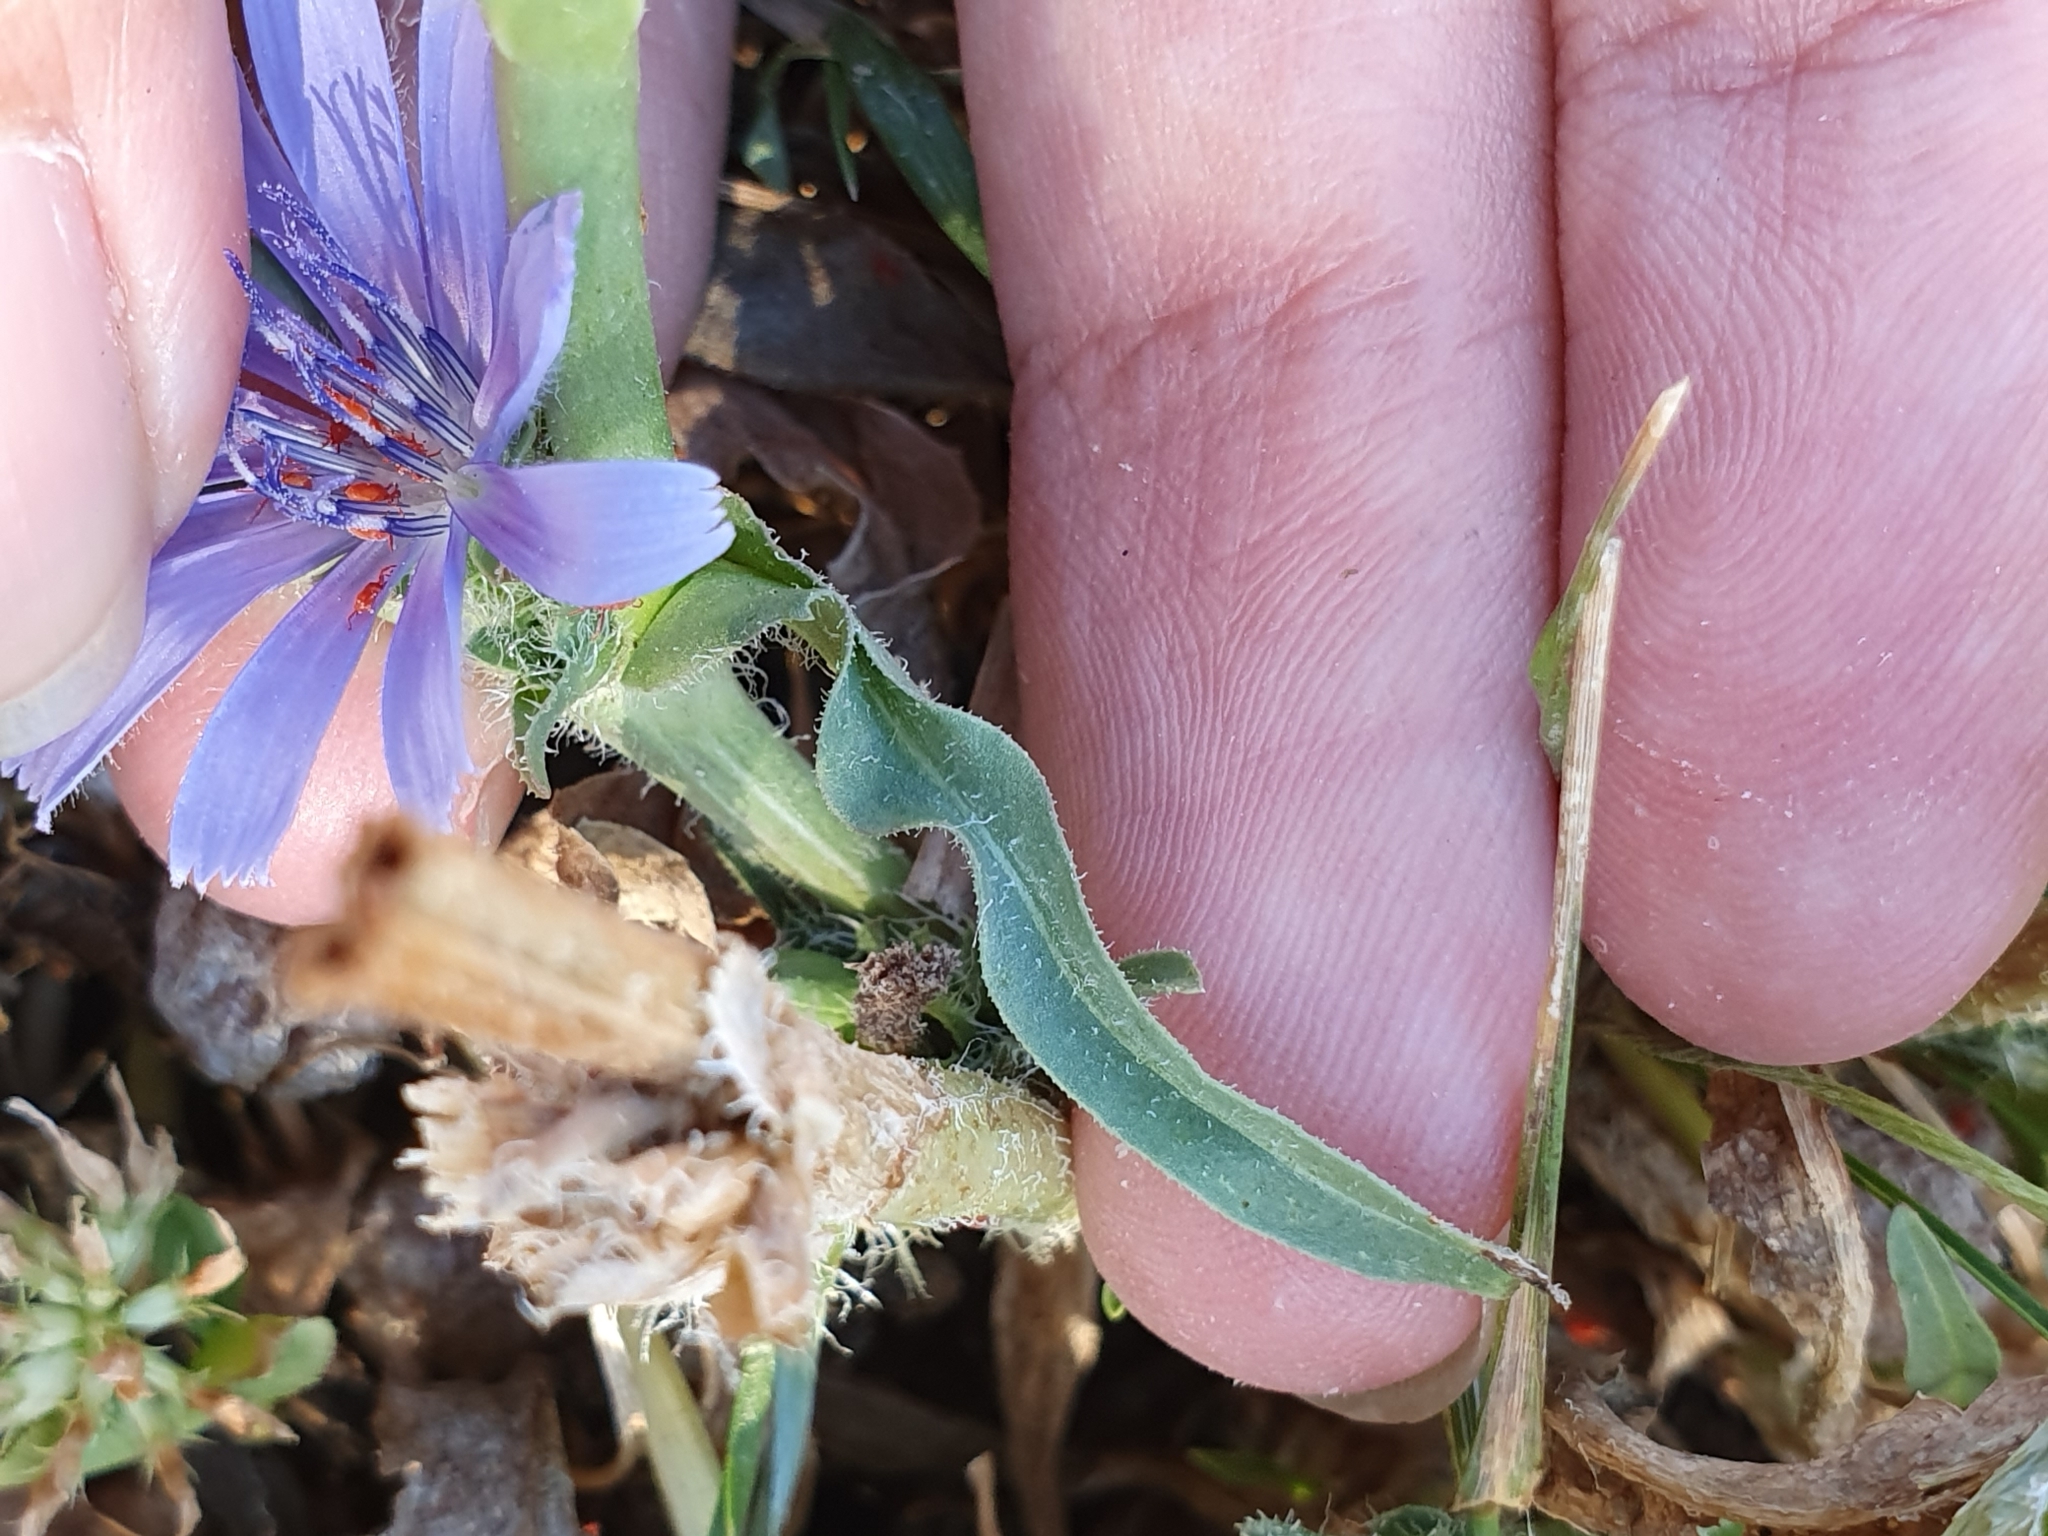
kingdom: Plantae
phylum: Tracheophyta
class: Magnoliopsida
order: Asterales
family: Asteraceae
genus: Cichorium
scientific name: Cichorium pumilum
